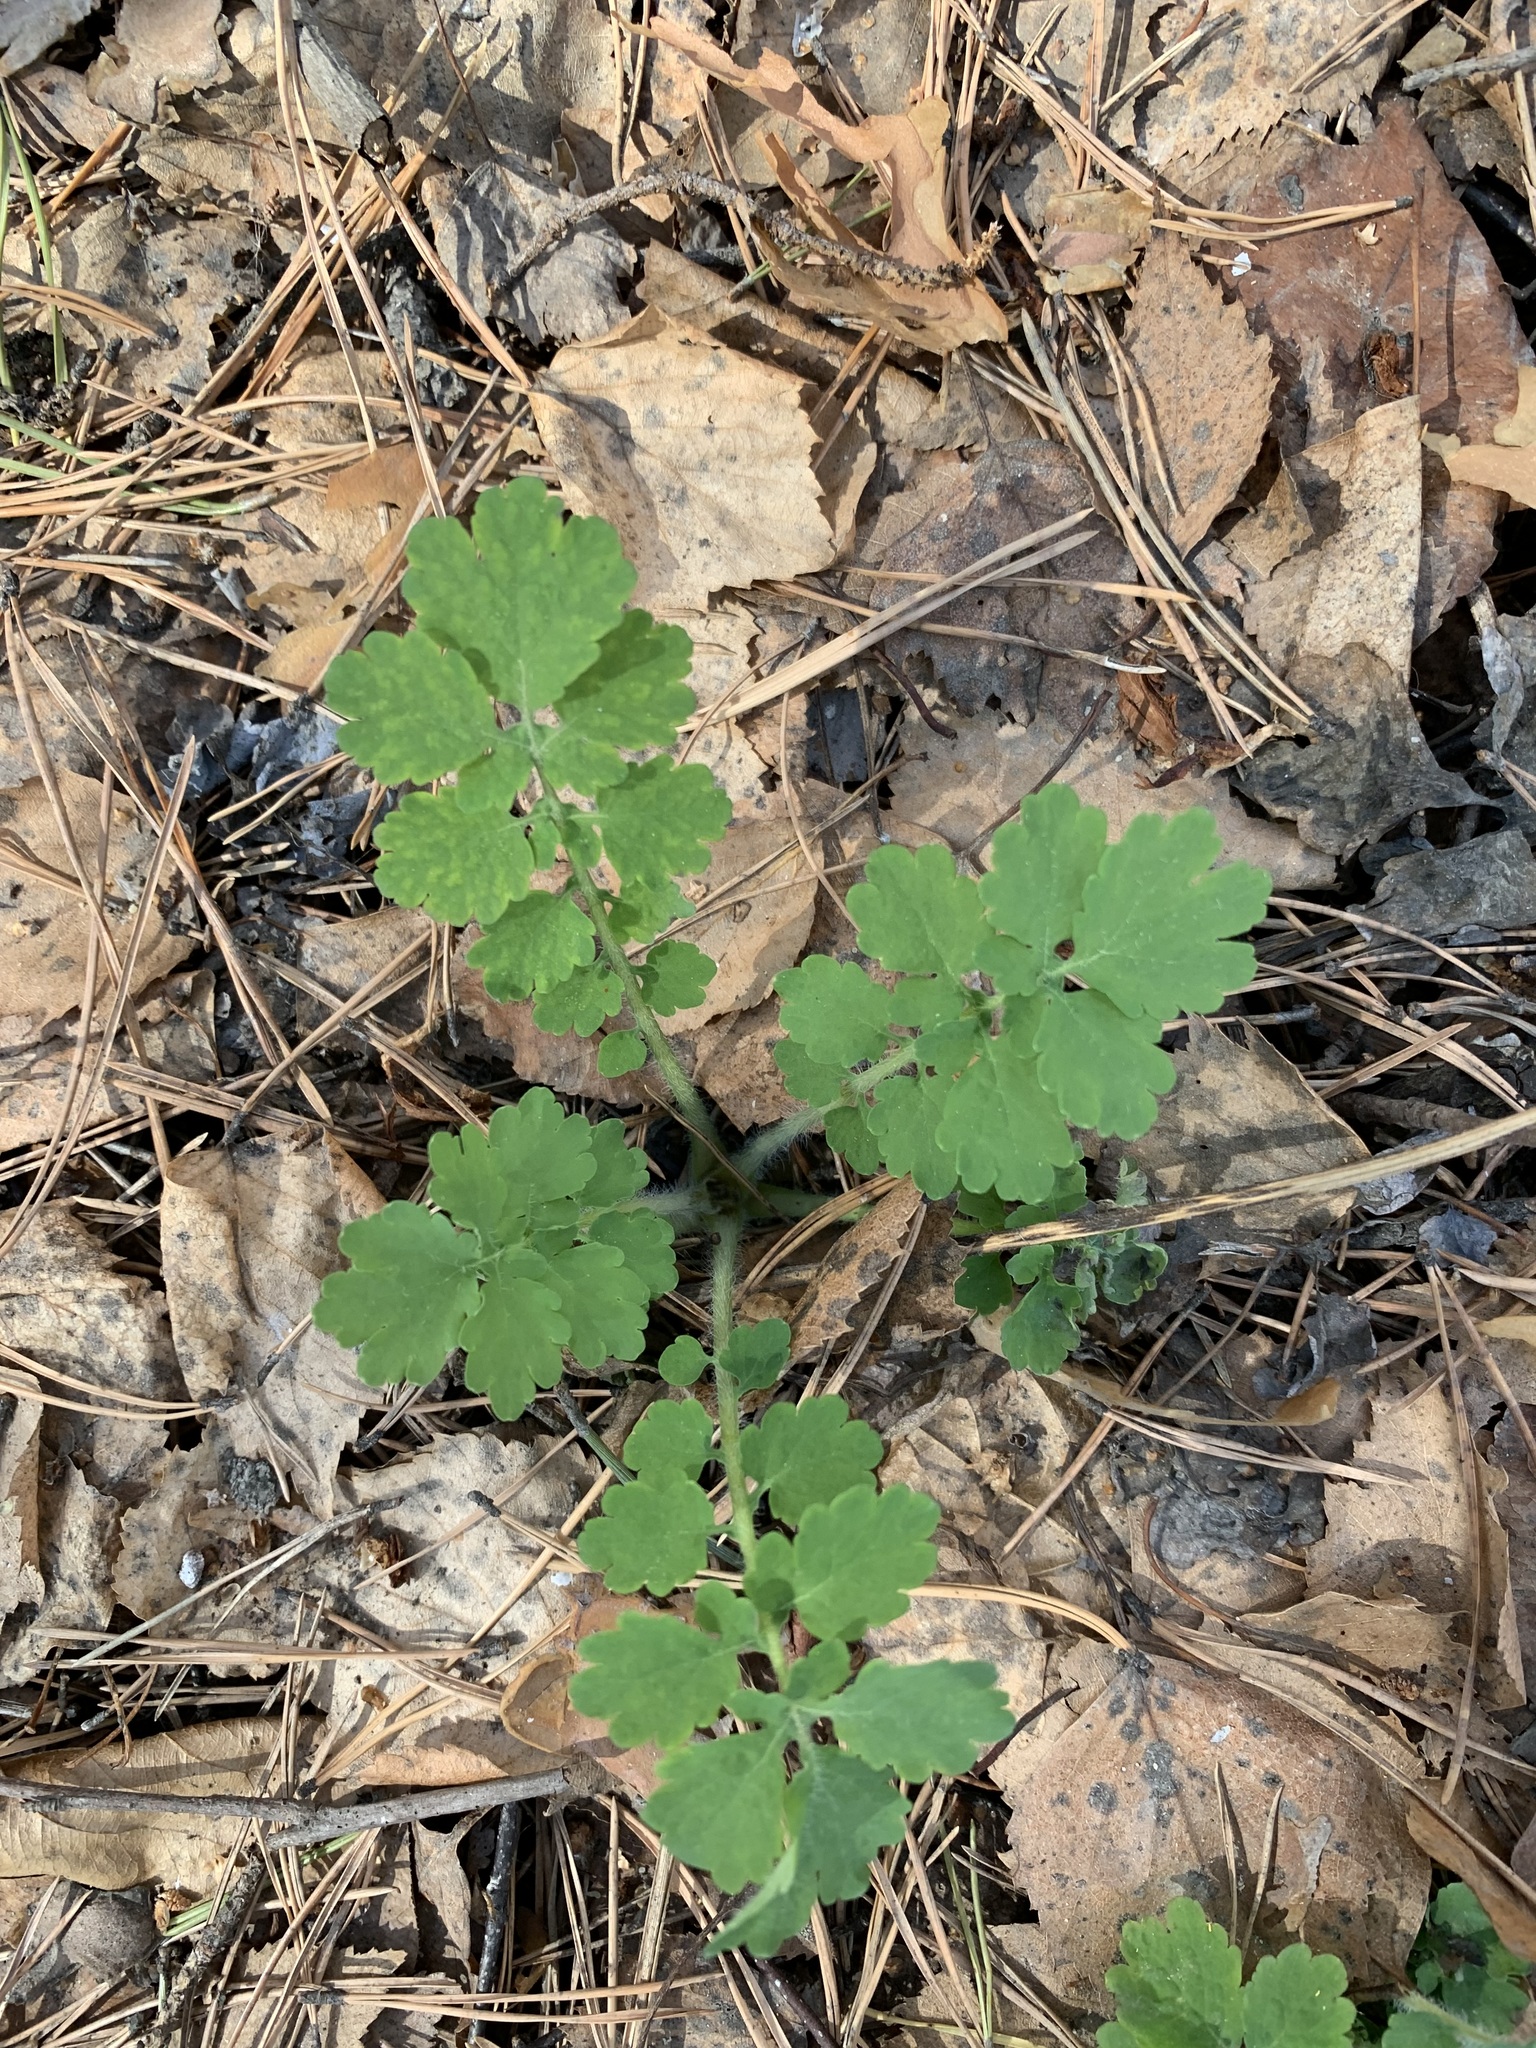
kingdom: Plantae
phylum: Tracheophyta
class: Magnoliopsida
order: Ranunculales
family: Papaveraceae
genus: Chelidonium
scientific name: Chelidonium majus
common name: Greater celandine
